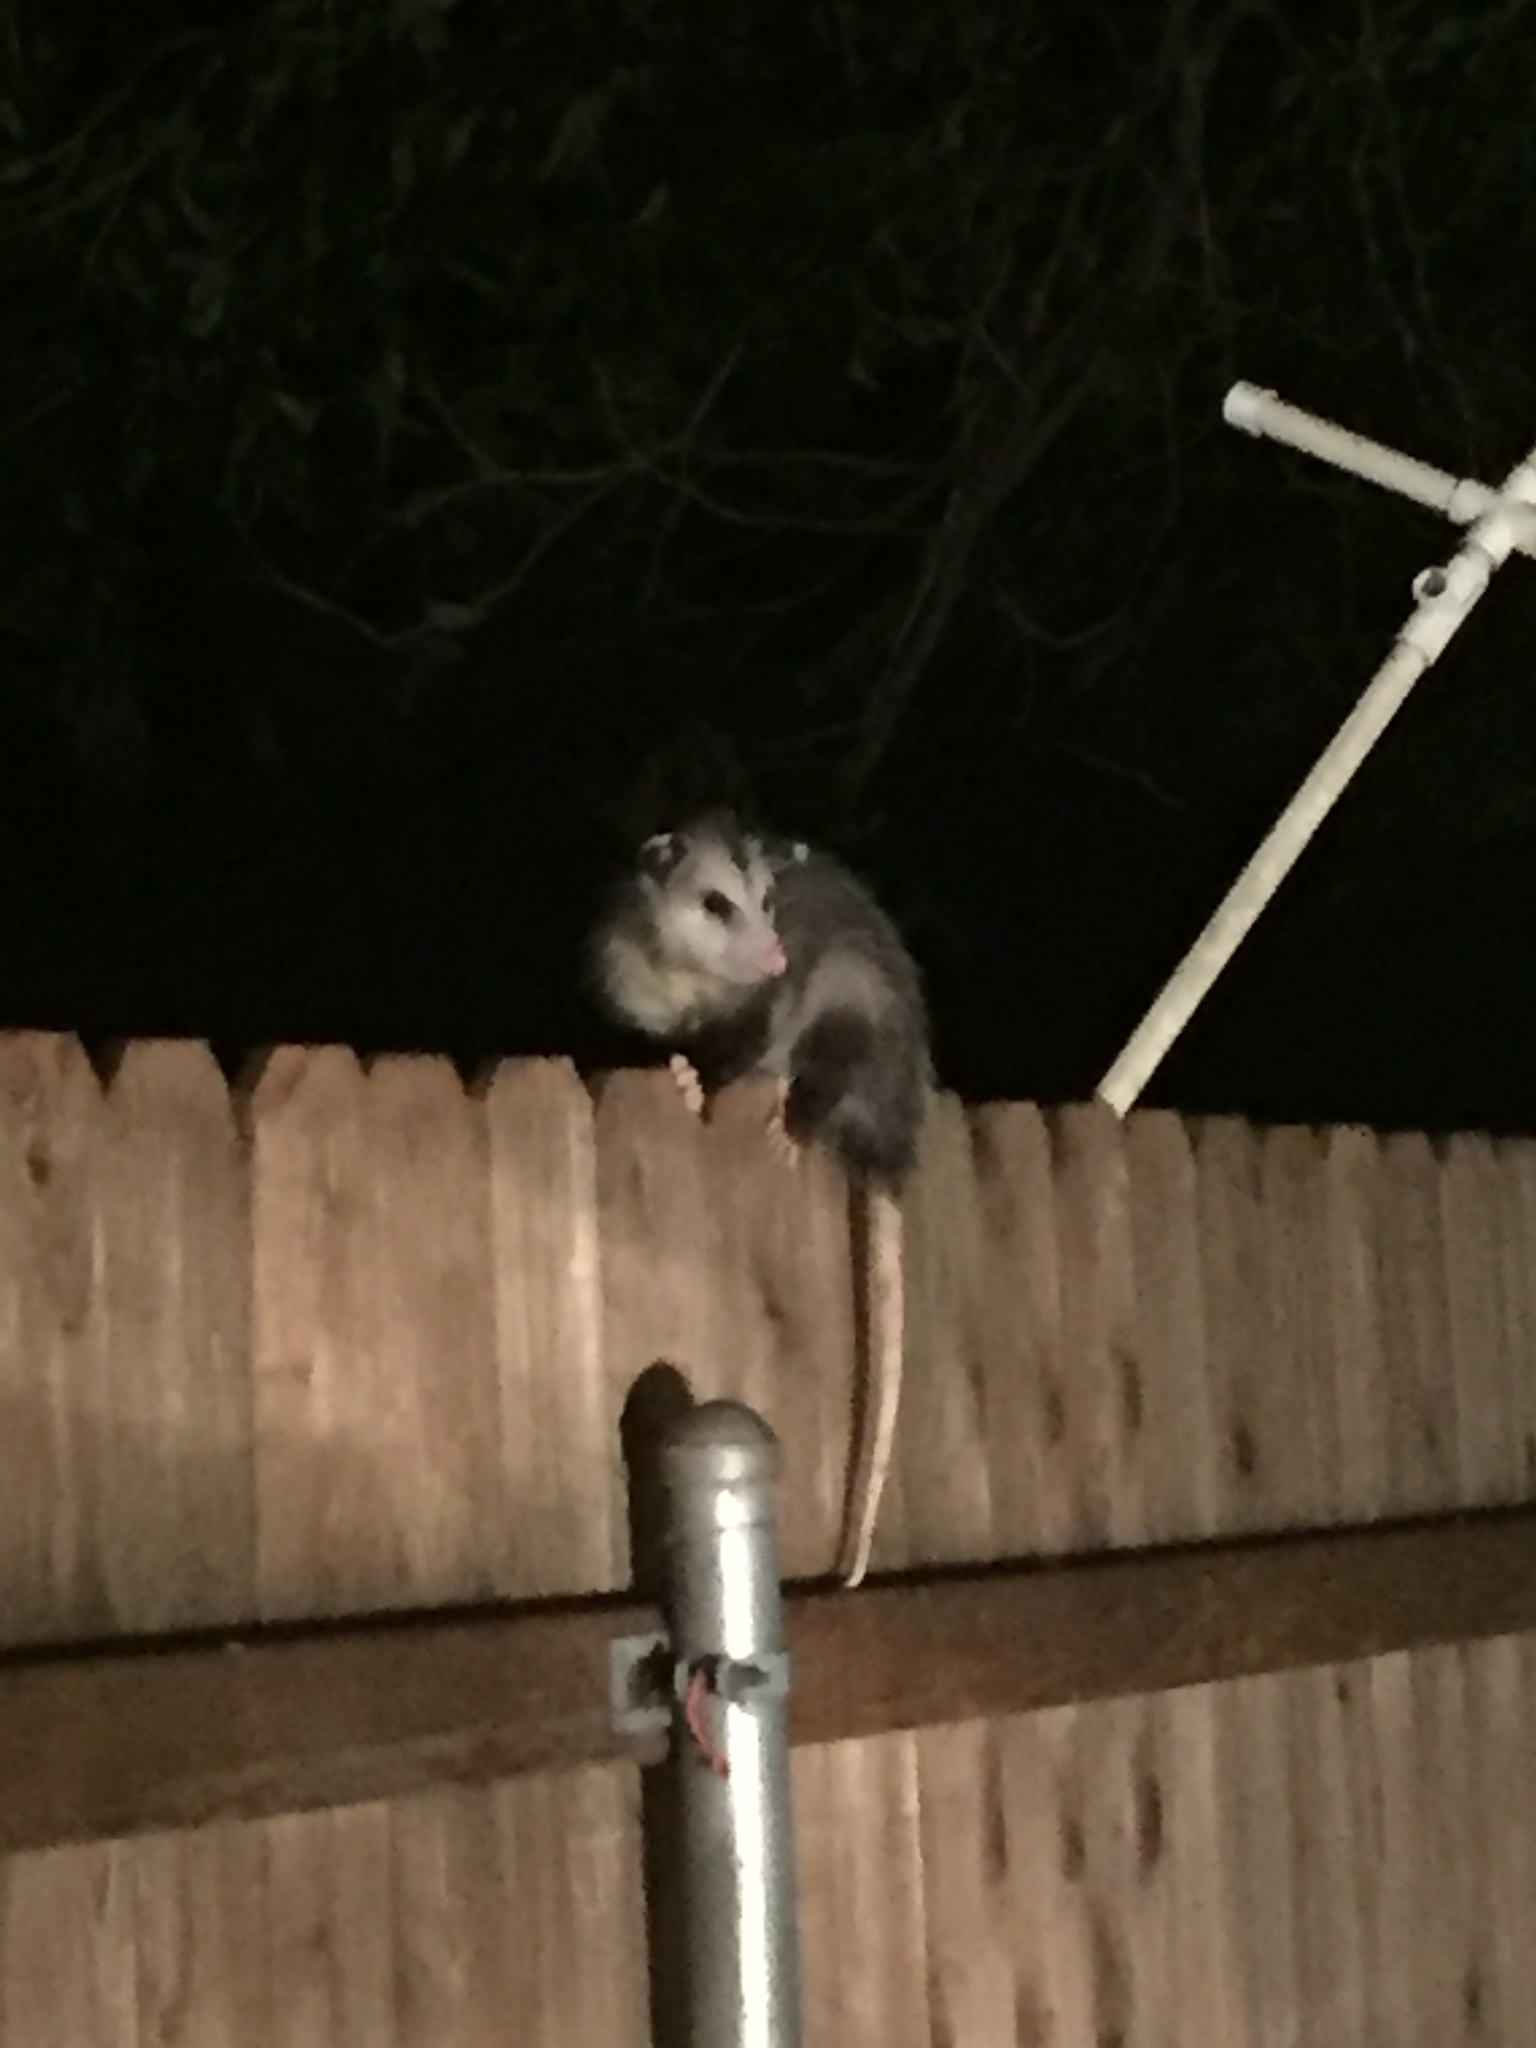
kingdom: Animalia
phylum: Chordata
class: Mammalia
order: Didelphimorphia
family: Didelphidae
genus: Didelphis
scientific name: Didelphis virginiana
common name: Virginia opossum
